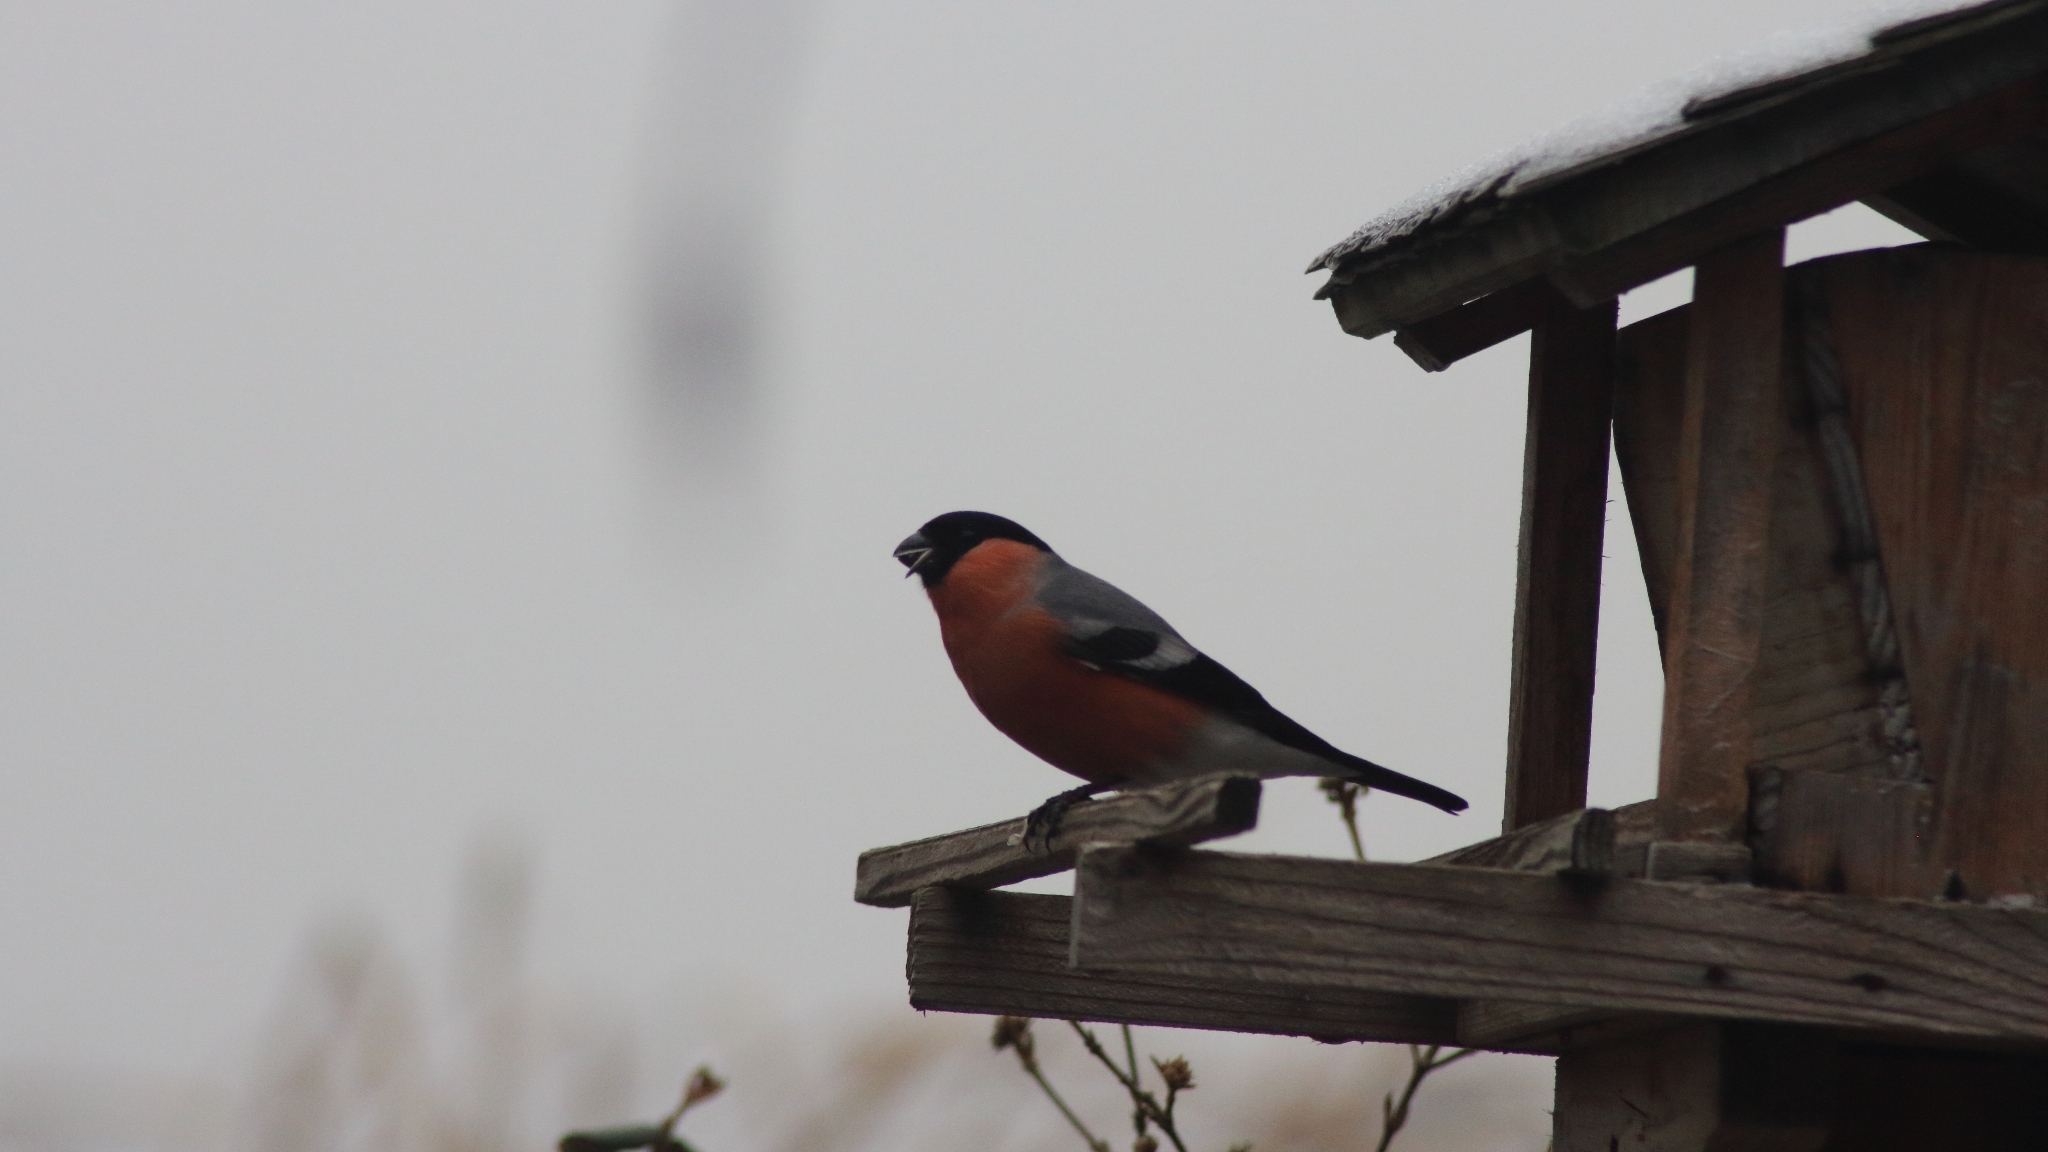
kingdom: Animalia
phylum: Chordata
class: Aves
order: Passeriformes
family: Fringillidae
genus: Pyrrhula
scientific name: Pyrrhula pyrrhula
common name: Eurasian bullfinch
